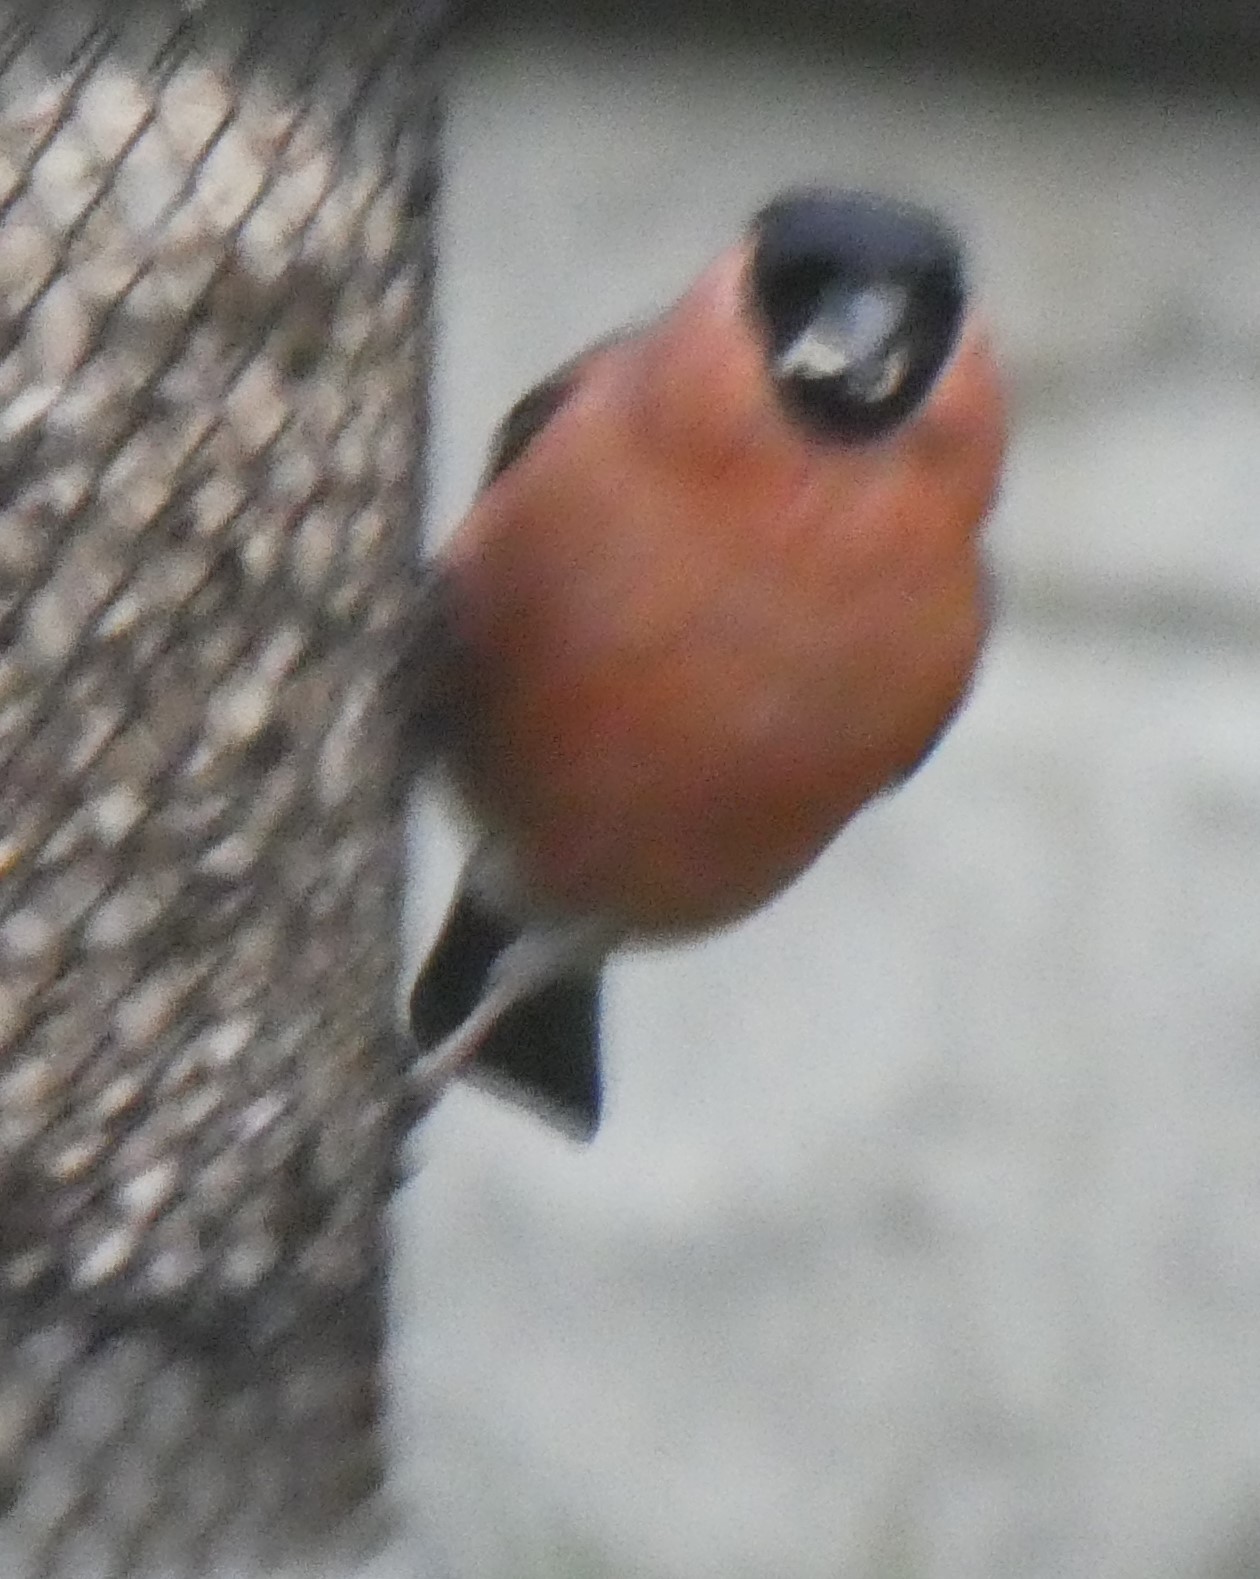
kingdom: Animalia
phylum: Chordata
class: Aves
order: Passeriformes
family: Fringillidae
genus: Pyrrhula
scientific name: Pyrrhula pyrrhula
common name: Eurasian bullfinch
